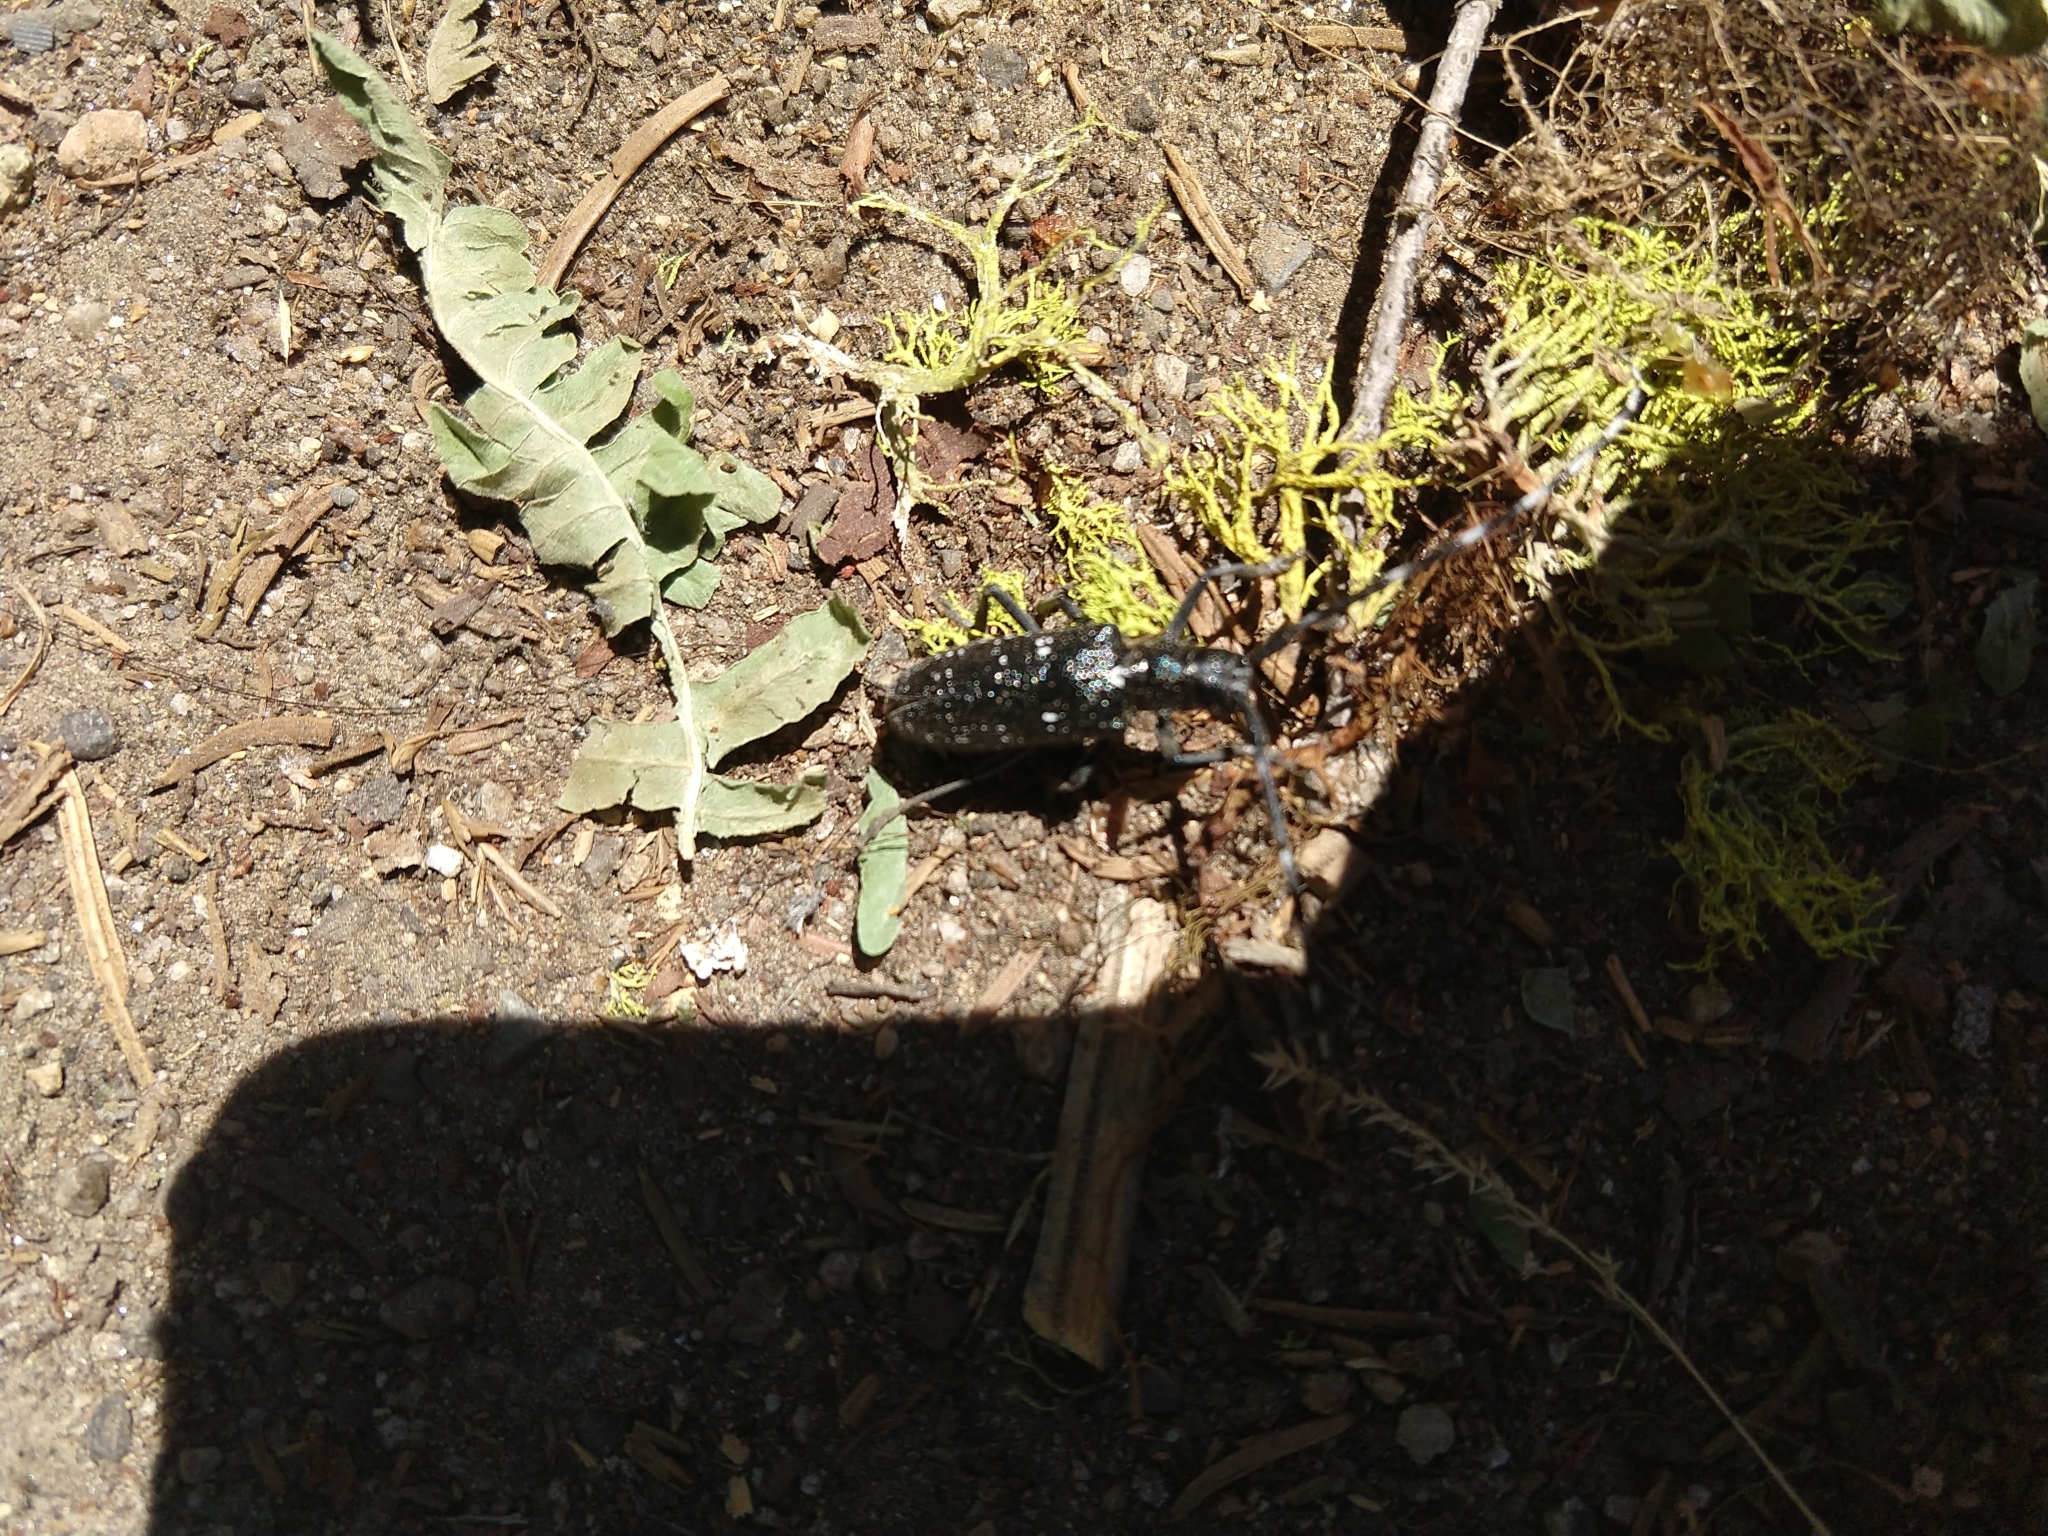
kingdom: Animalia
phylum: Arthropoda
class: Insecta
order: Coleoptera
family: Cerambycidae
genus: Monochamus
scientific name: Monochamus scutellatus
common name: White-spotted sawyer beetle
